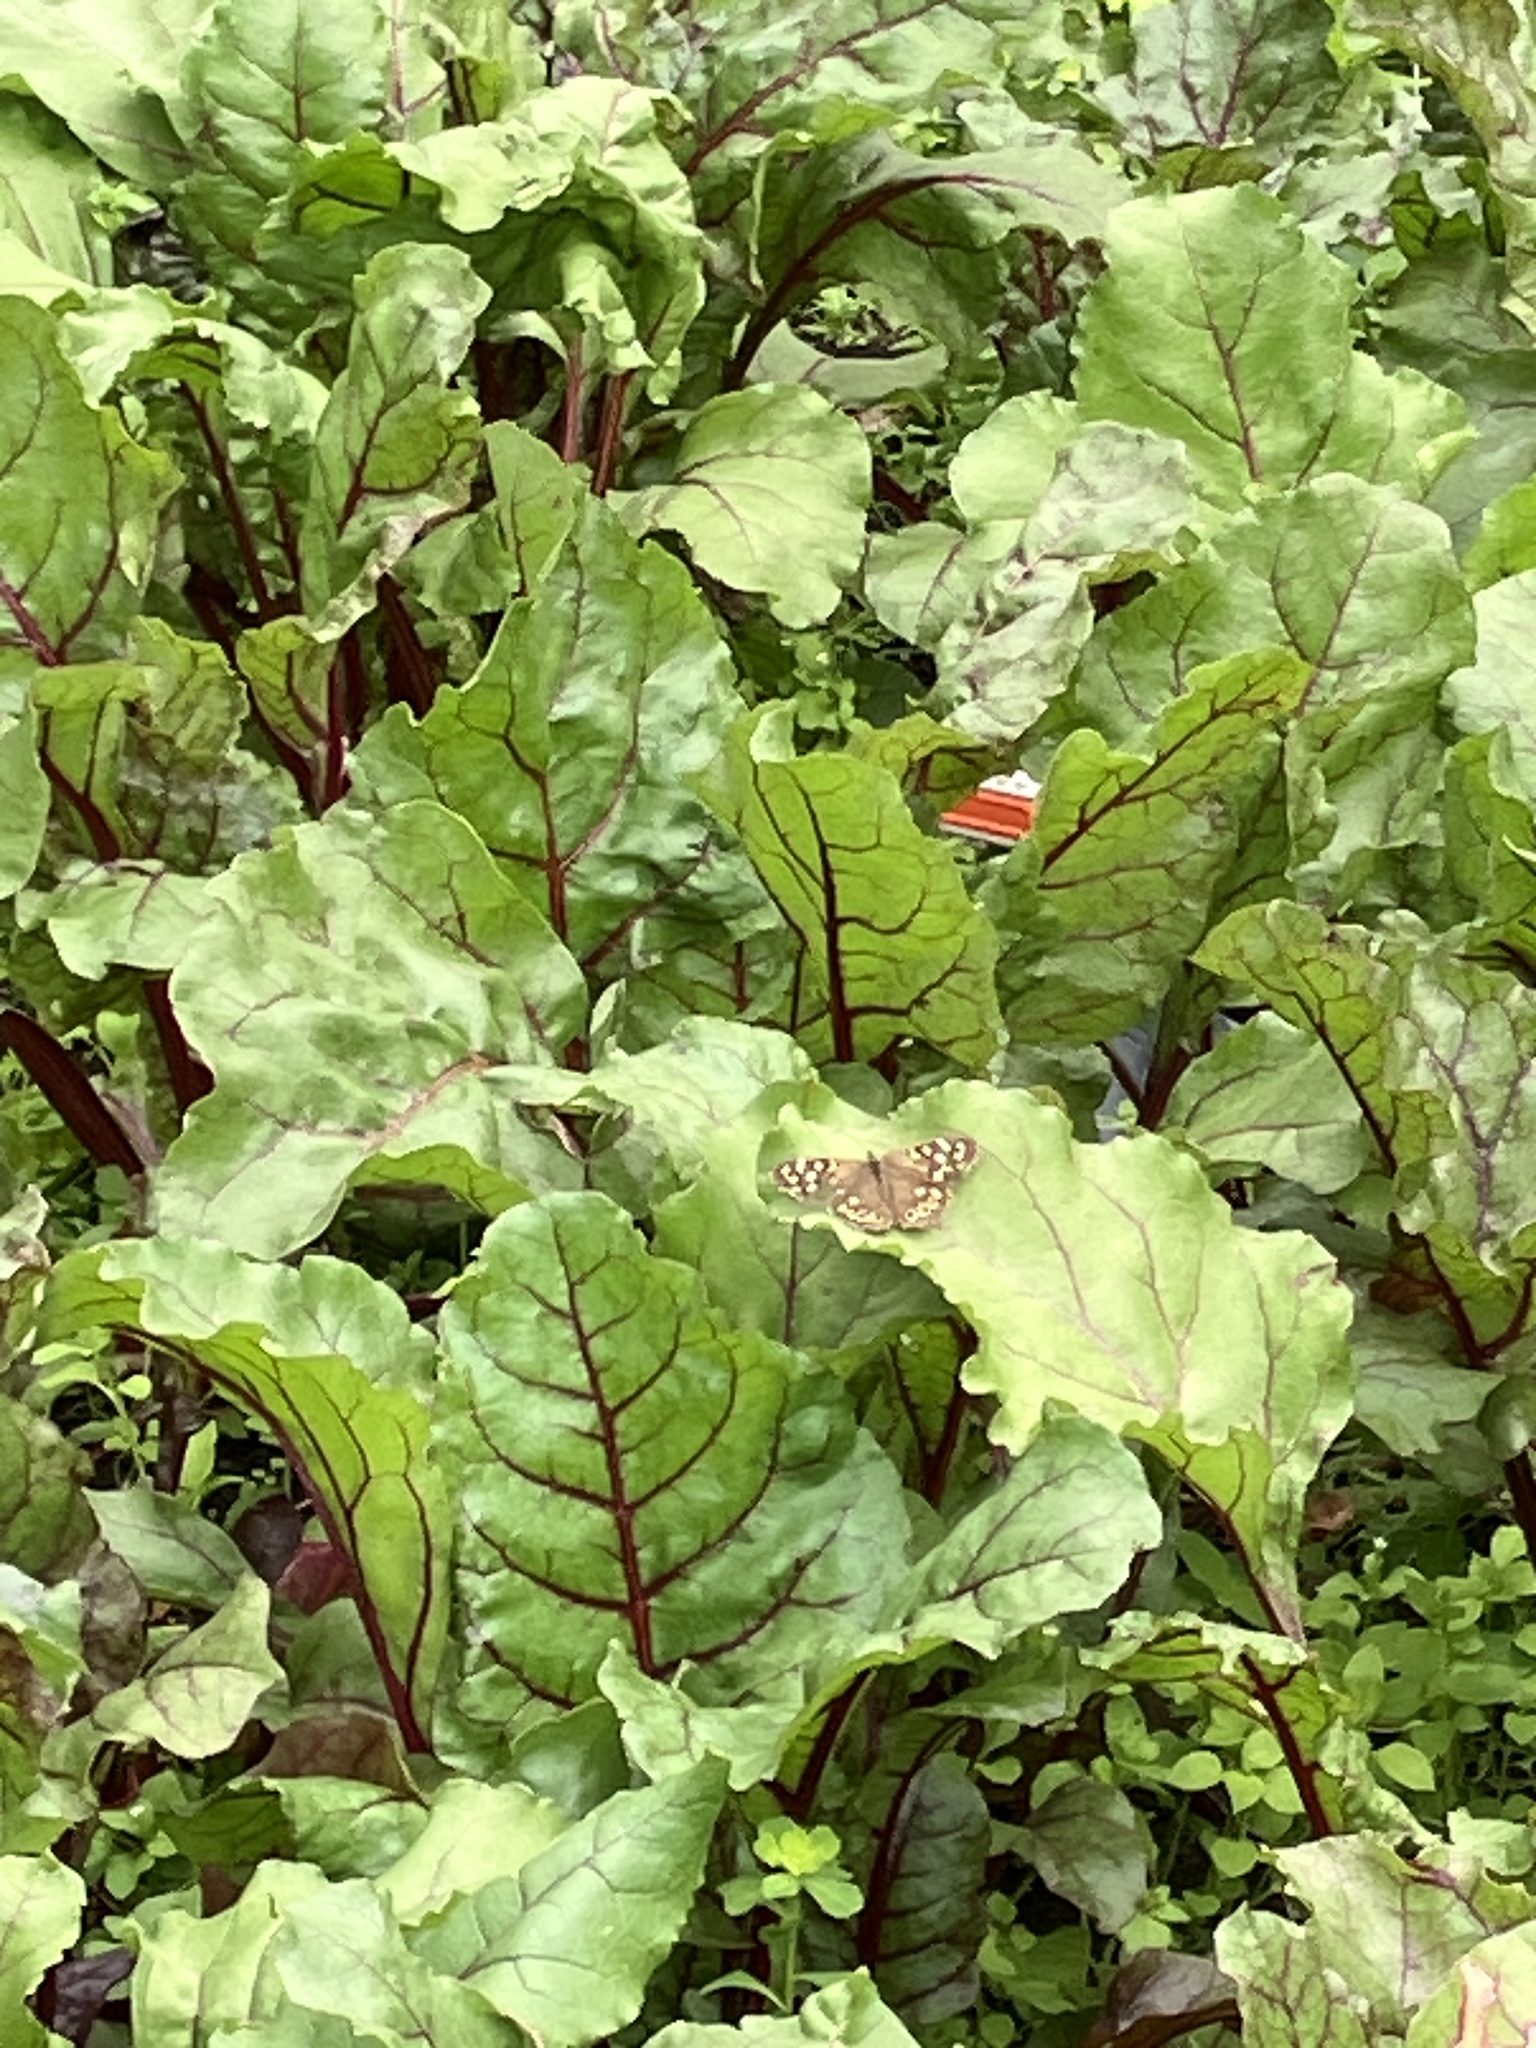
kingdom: Animalia
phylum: Arthropoda
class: Insecta
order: Lepidoptera
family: Nymphalidae
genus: Pararge
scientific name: Pararge aegeria
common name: Speckled wood
